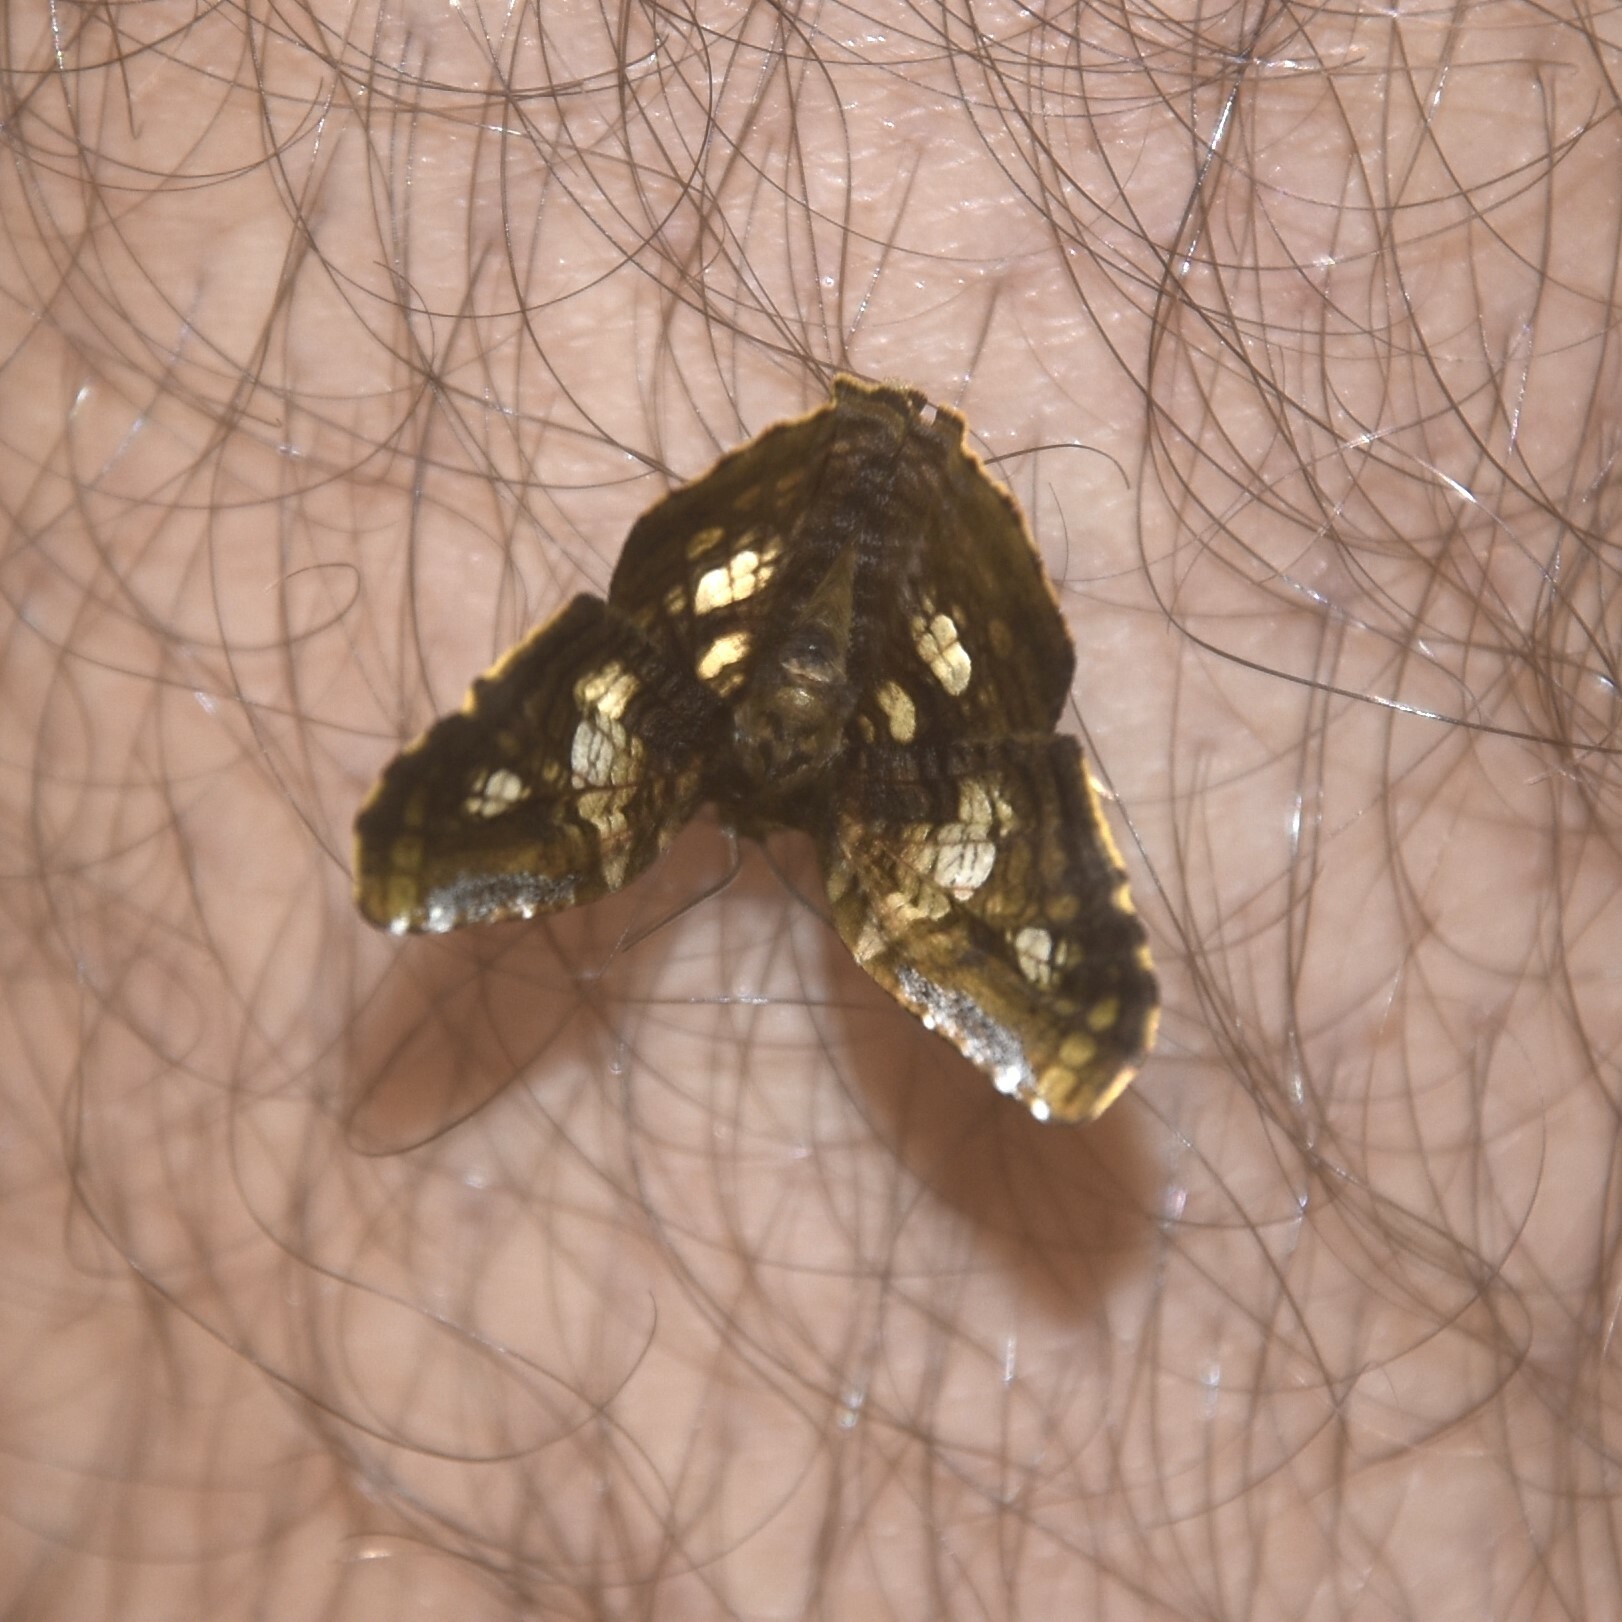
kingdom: Animalia
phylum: Arthropoda
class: Insecta
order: Lepidoptera
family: Thyrididae
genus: Sericophara
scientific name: Sericophara guttata
